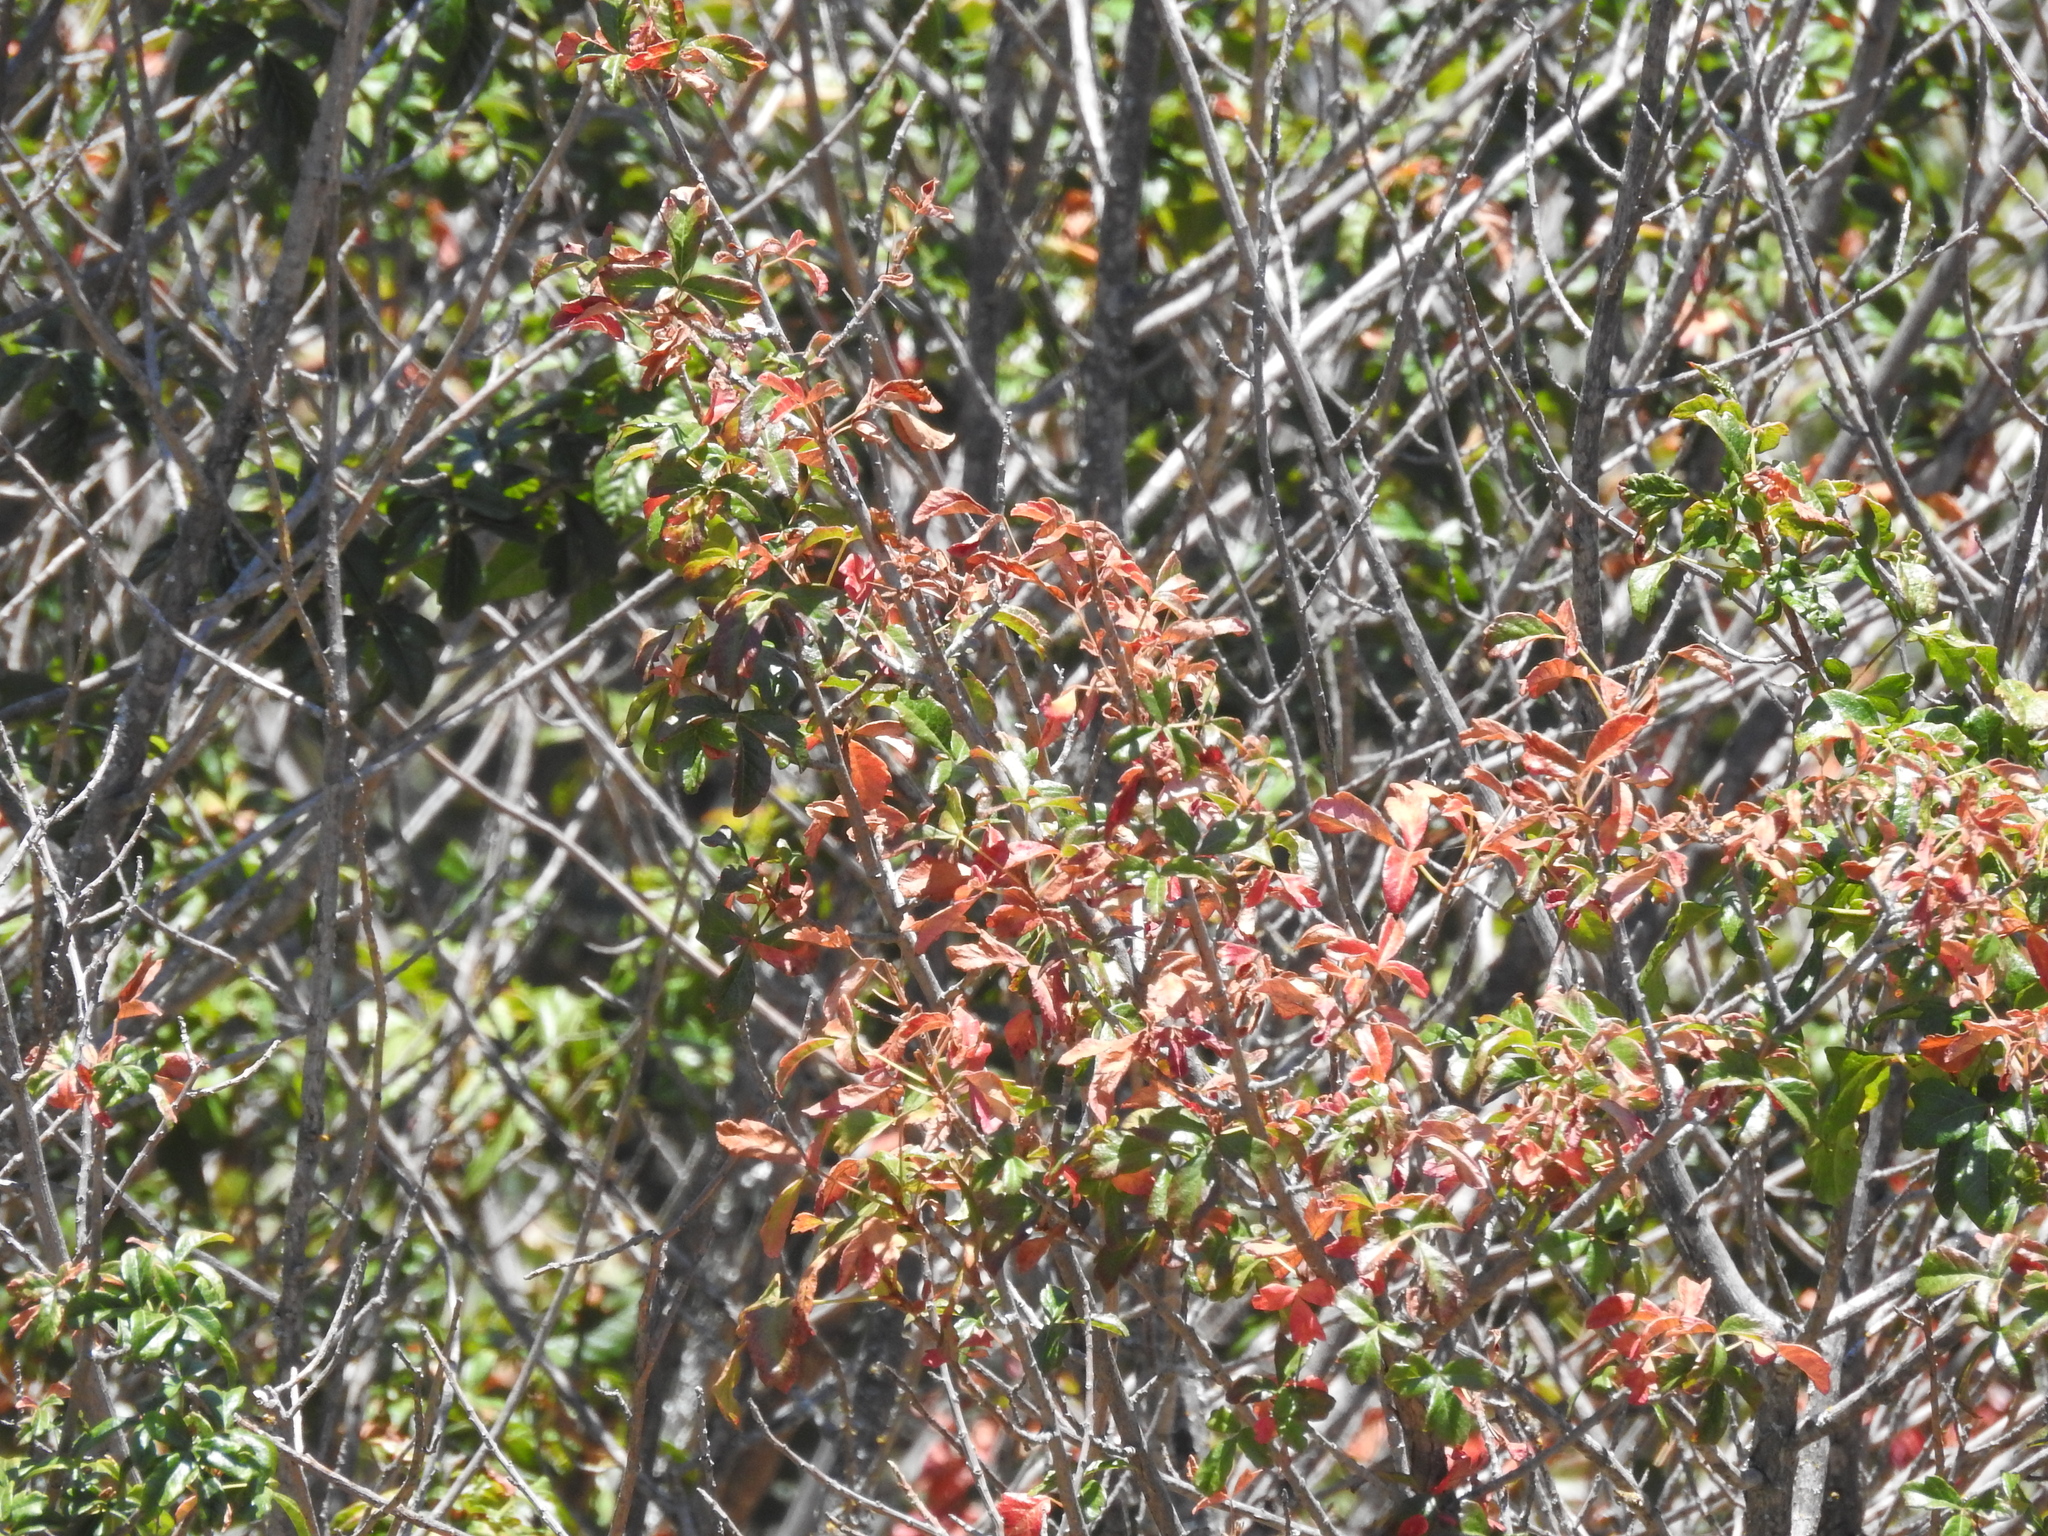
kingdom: Plantae
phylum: Tracheophyta
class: Magnoliopsida
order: Sapindales
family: Anacardiaceae
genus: Toxicodendron
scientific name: Toxicodendron diversilobum
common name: Pacific poison-oak
